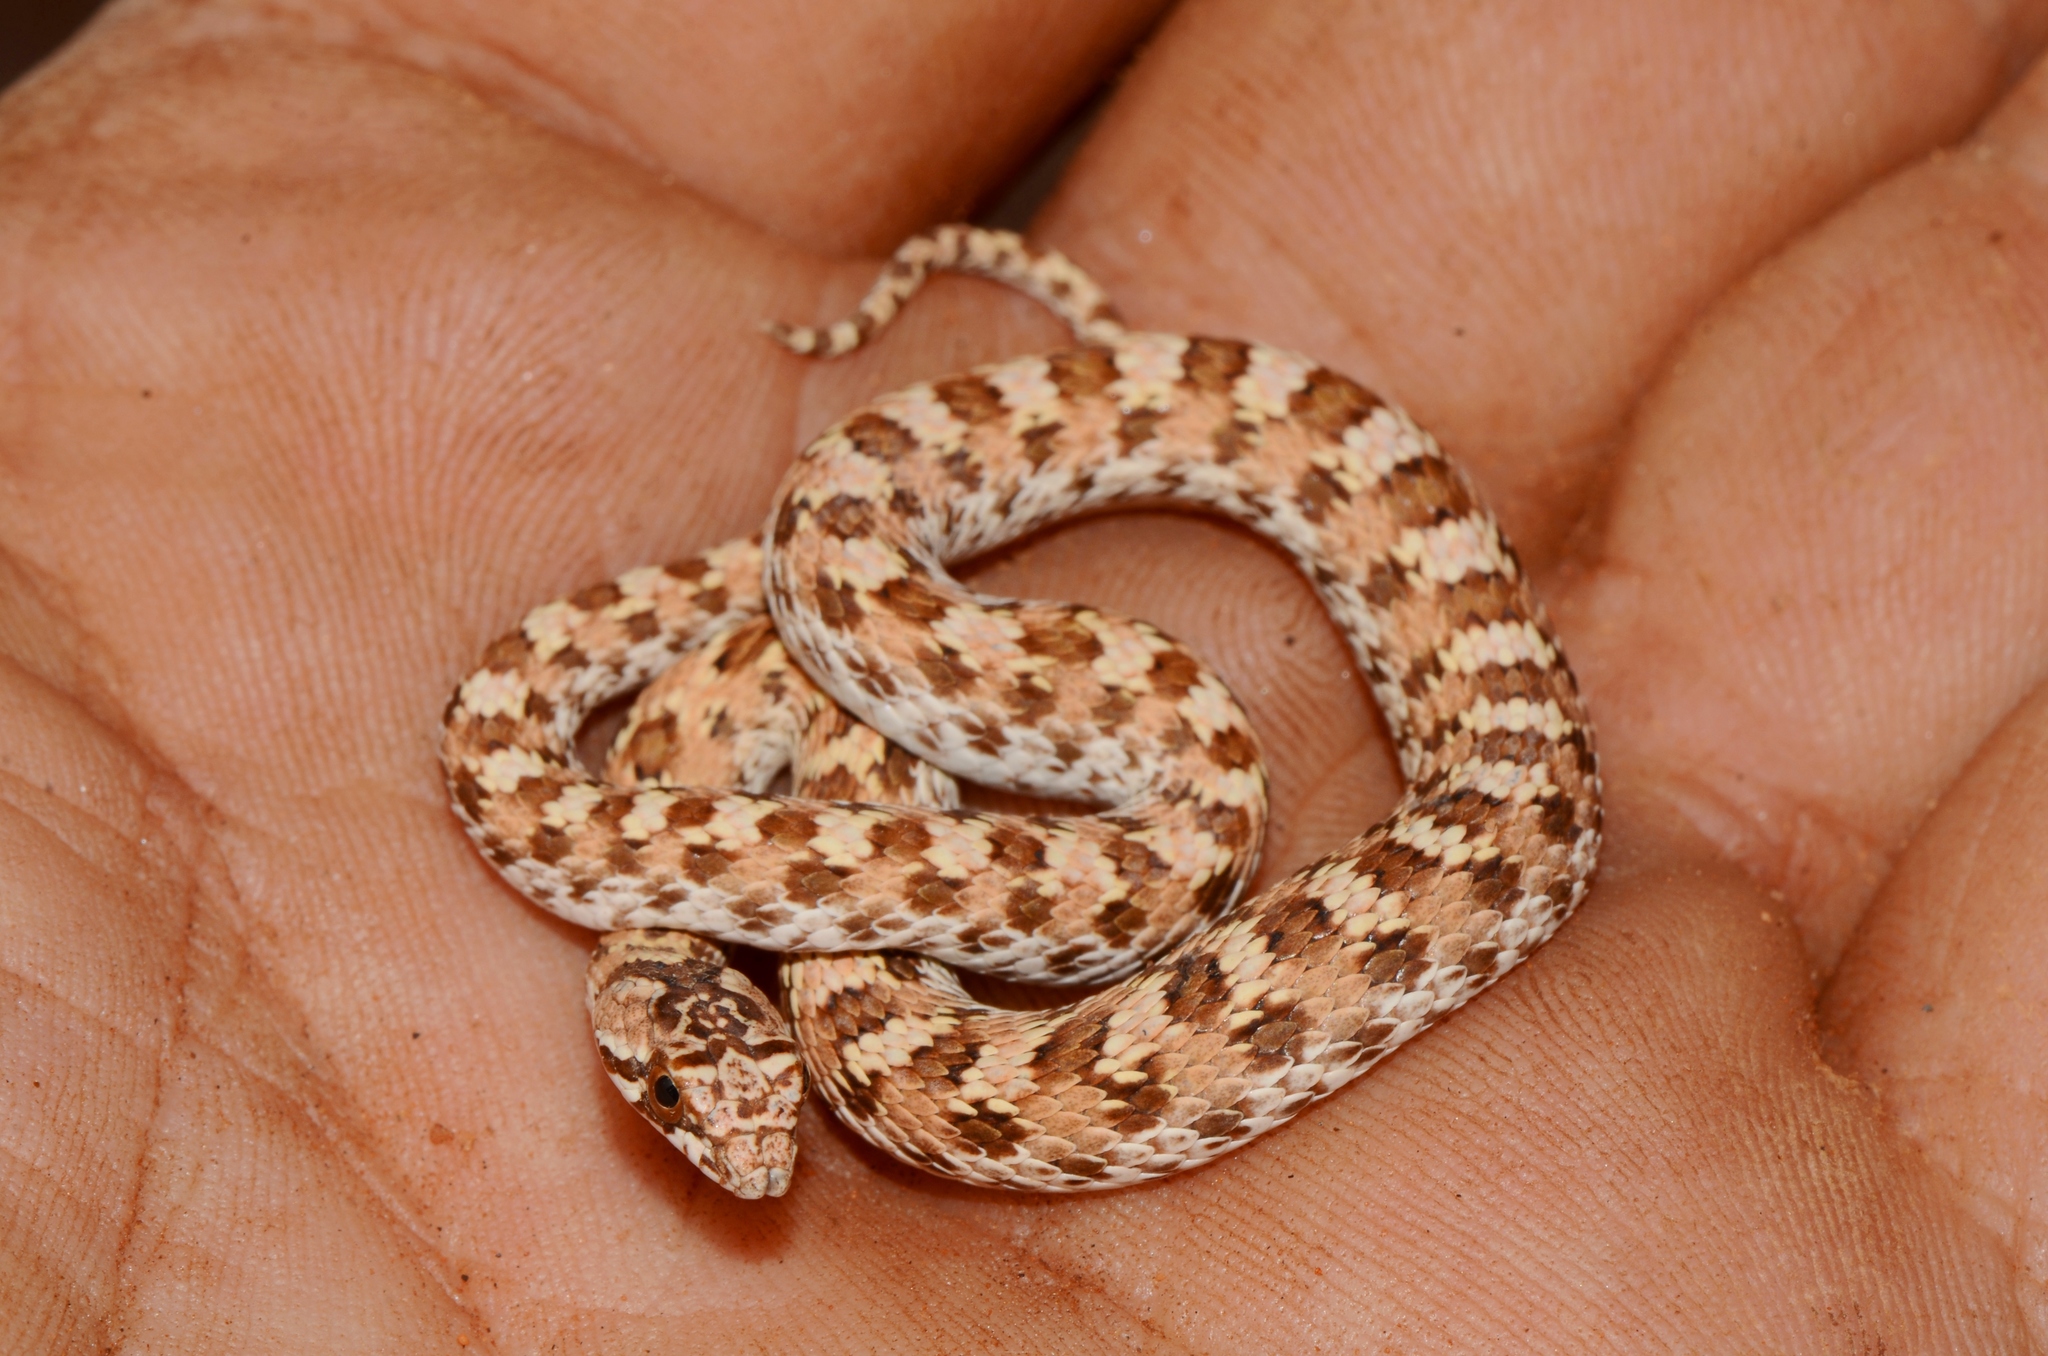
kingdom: Animalia
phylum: Chordata
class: Squamata
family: Psammophiidae
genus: Dipsina
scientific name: Dipsina multimaculata
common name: Dwarf beaked snake
